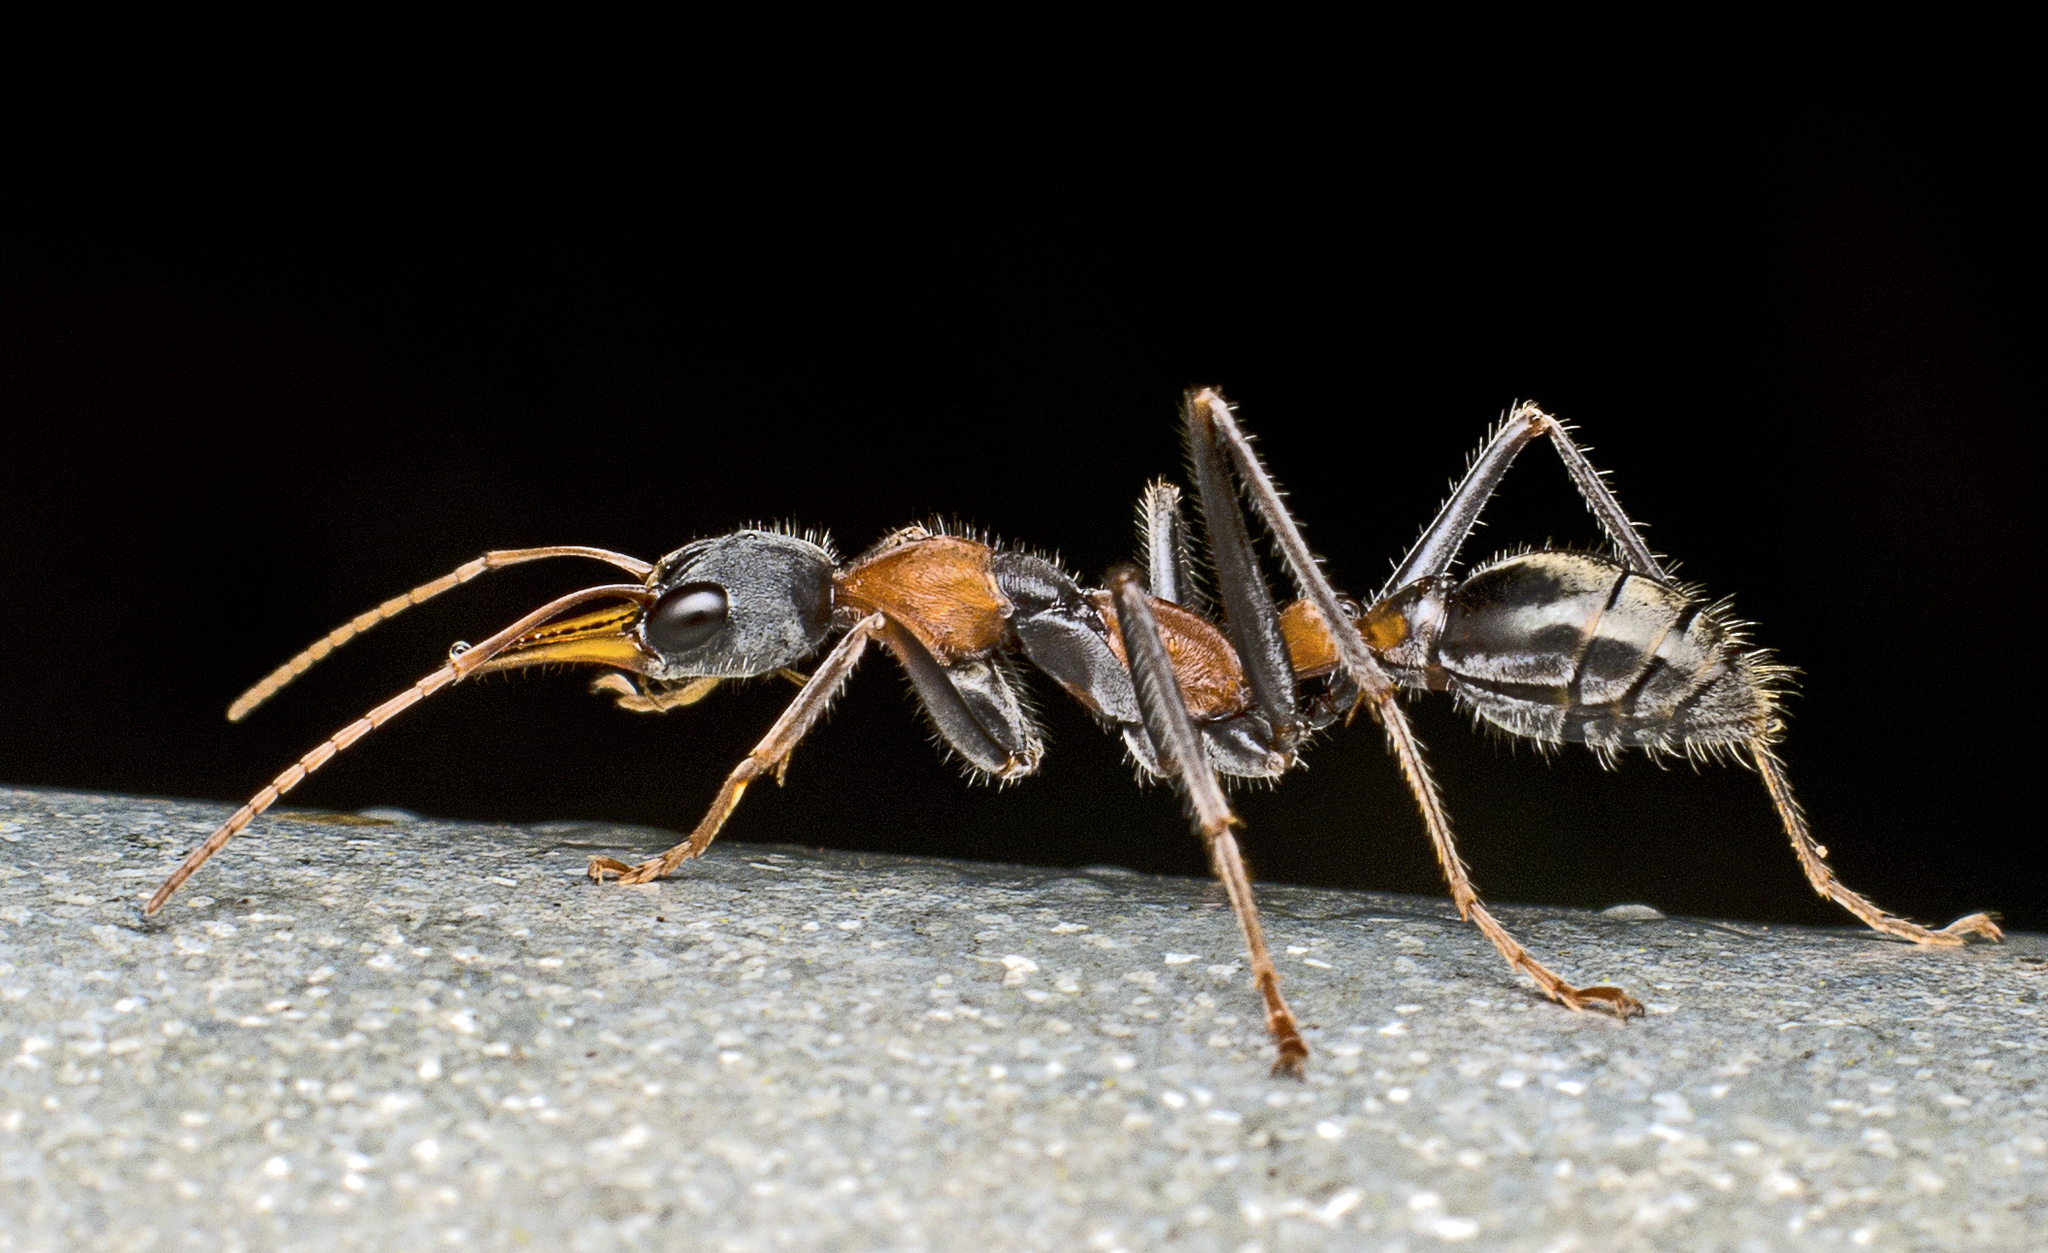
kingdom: Animalia
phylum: Arthropoda
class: Insecta
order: Hymenoptera
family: Formicidae
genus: Myrmecia
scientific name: Myrmecia nigrocincta
